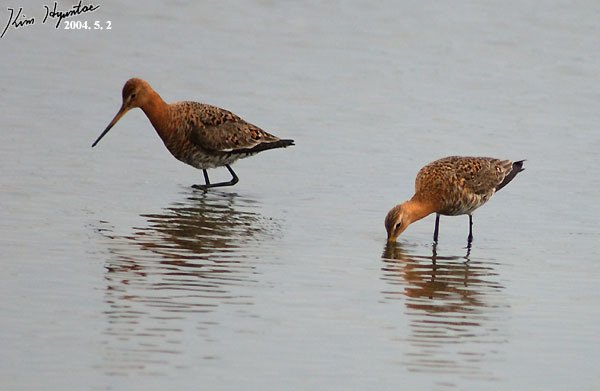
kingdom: Animalia
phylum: Chordata
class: Aves
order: Charadriiformes
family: Scolopacidae
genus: Limosa
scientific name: Limosa limosa
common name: Black-tailed godwit
